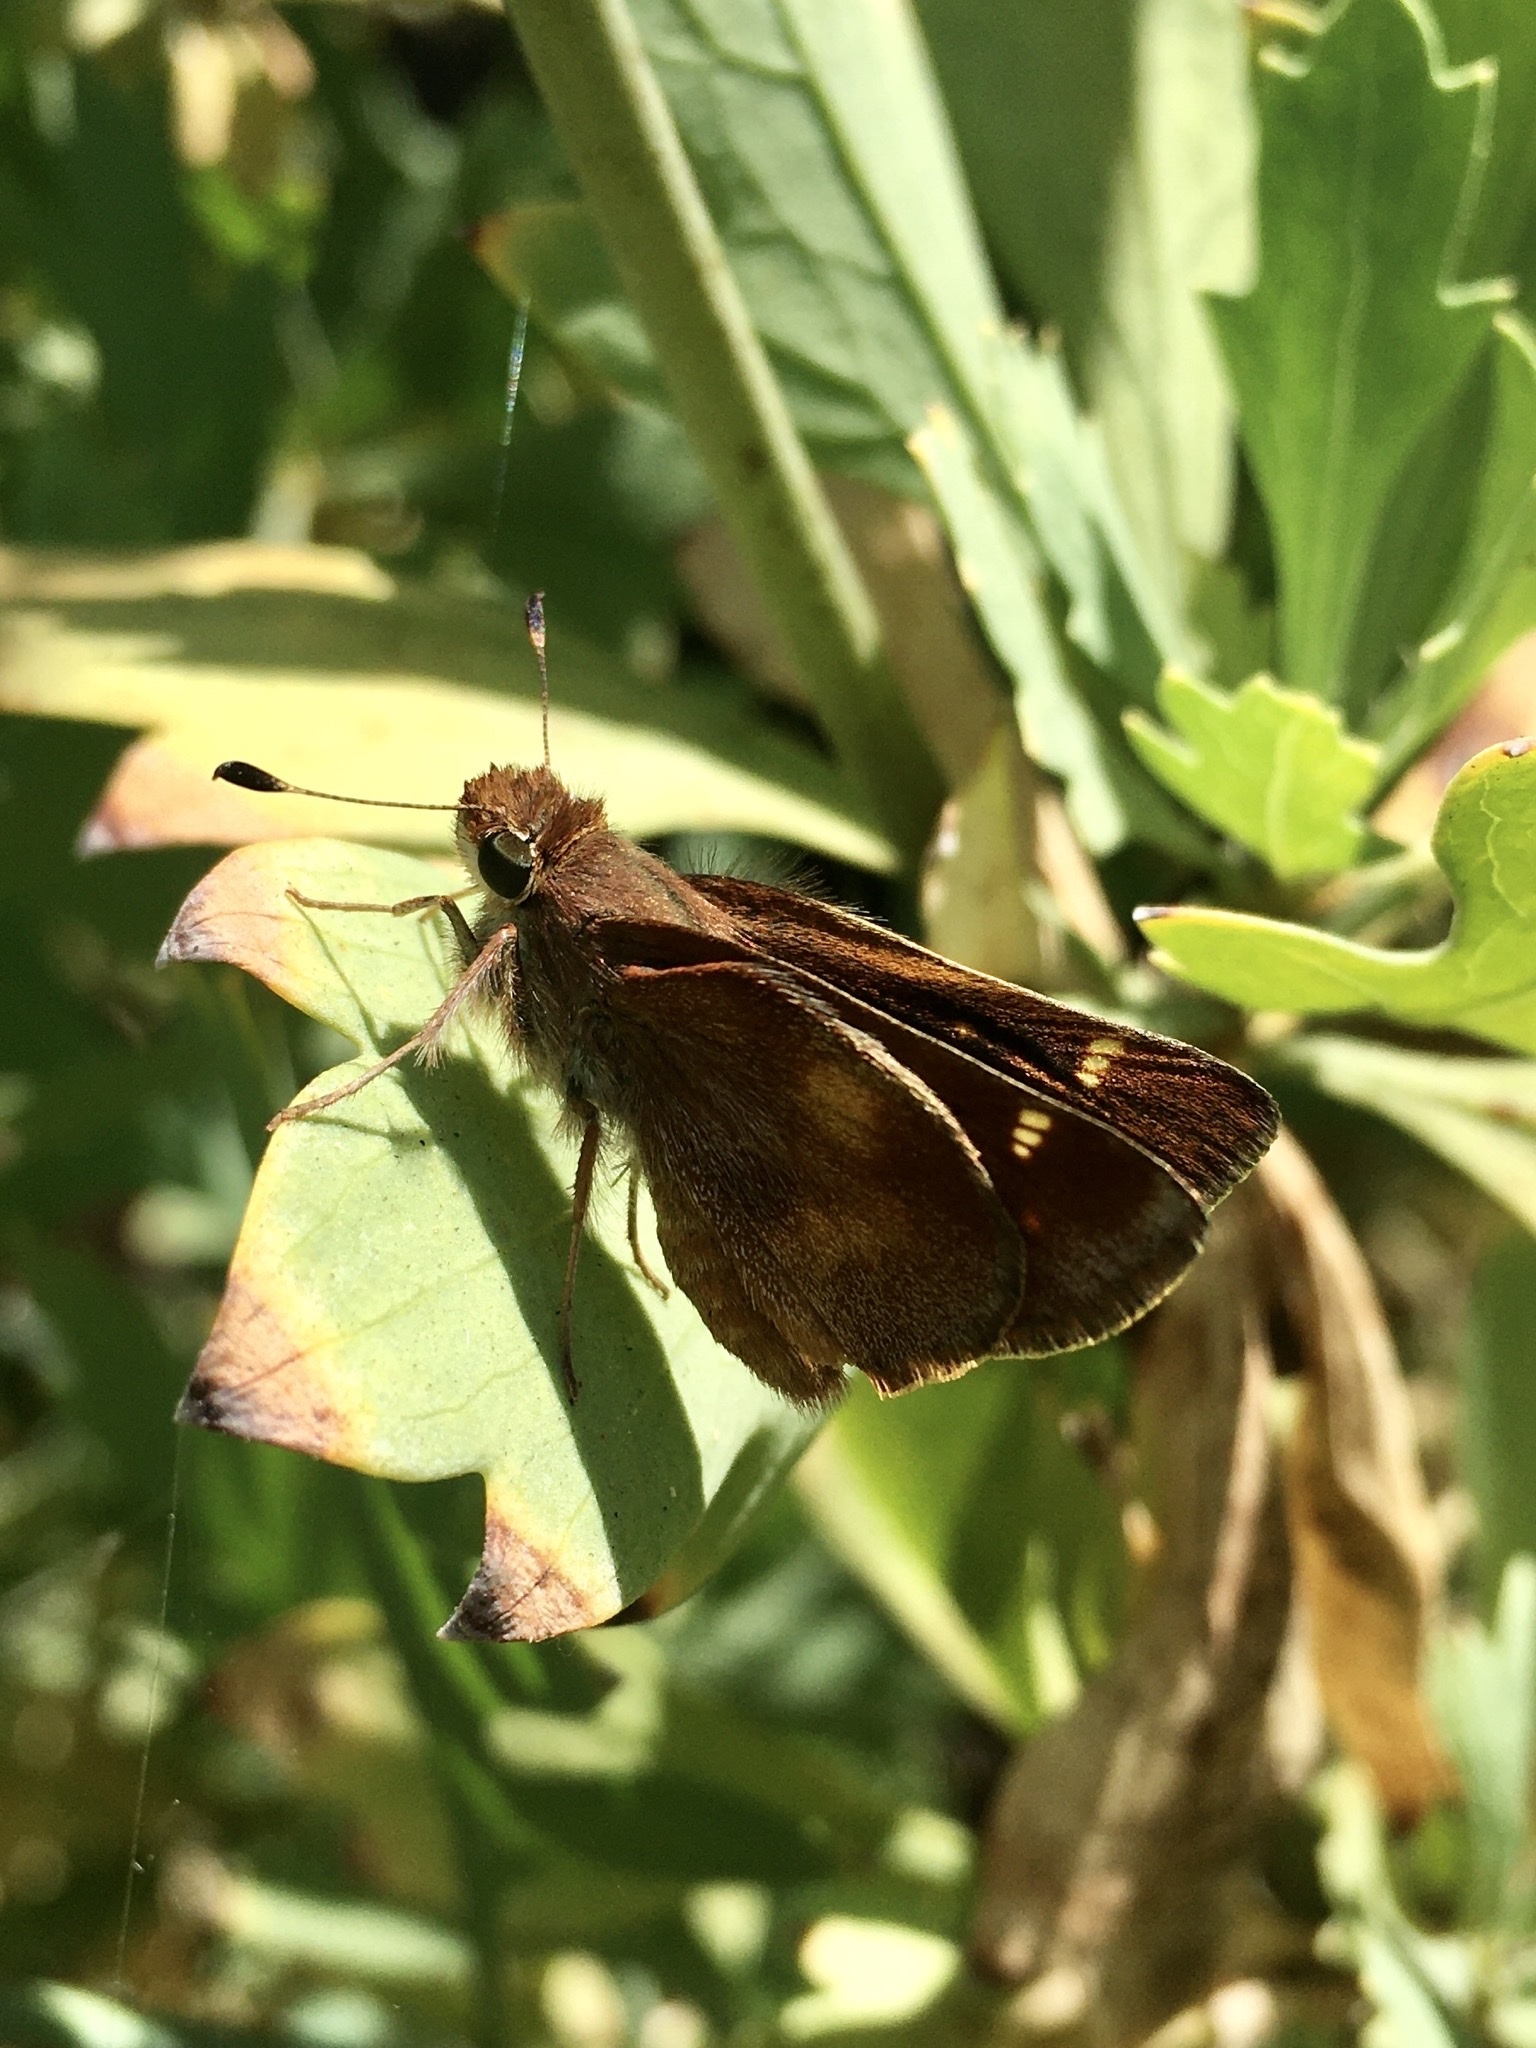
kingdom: Animalia
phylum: Arthropoda
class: Insecta
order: Lepidoptera
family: Hesperiidae
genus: Lon
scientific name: Lon melane
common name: Umber skipper
